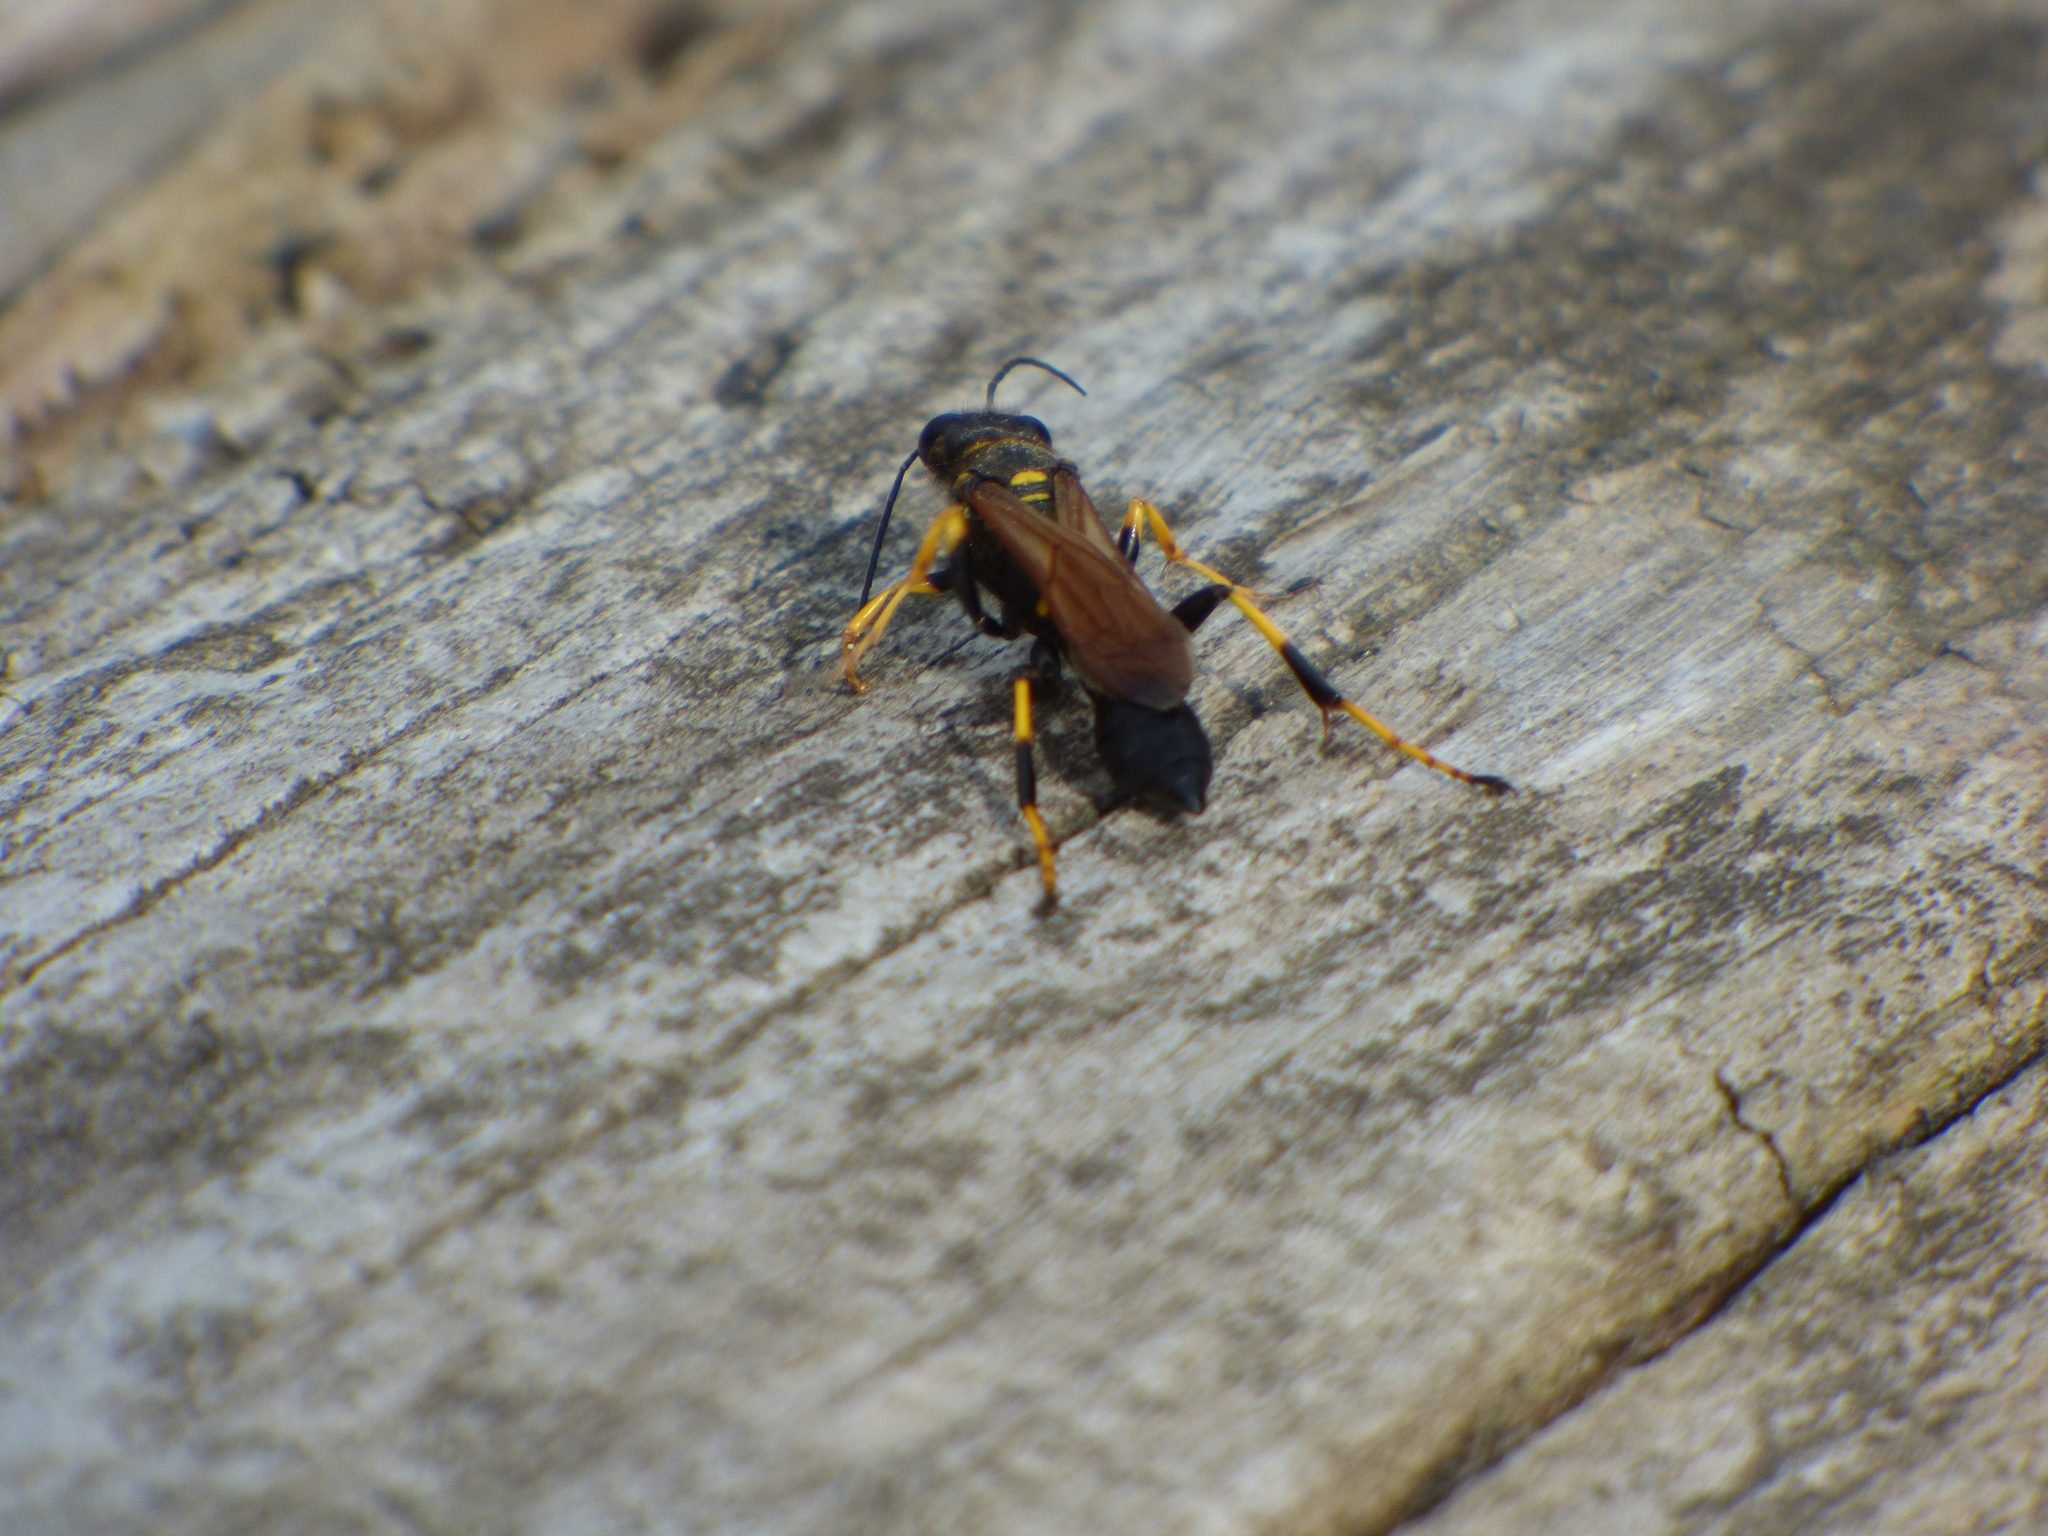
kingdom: Animalia
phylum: Arthropoda
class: Insecta
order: Hymenoptera
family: Sphecidae
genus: Sceliphron
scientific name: Sceliphron caementarium
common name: Mud dauber
